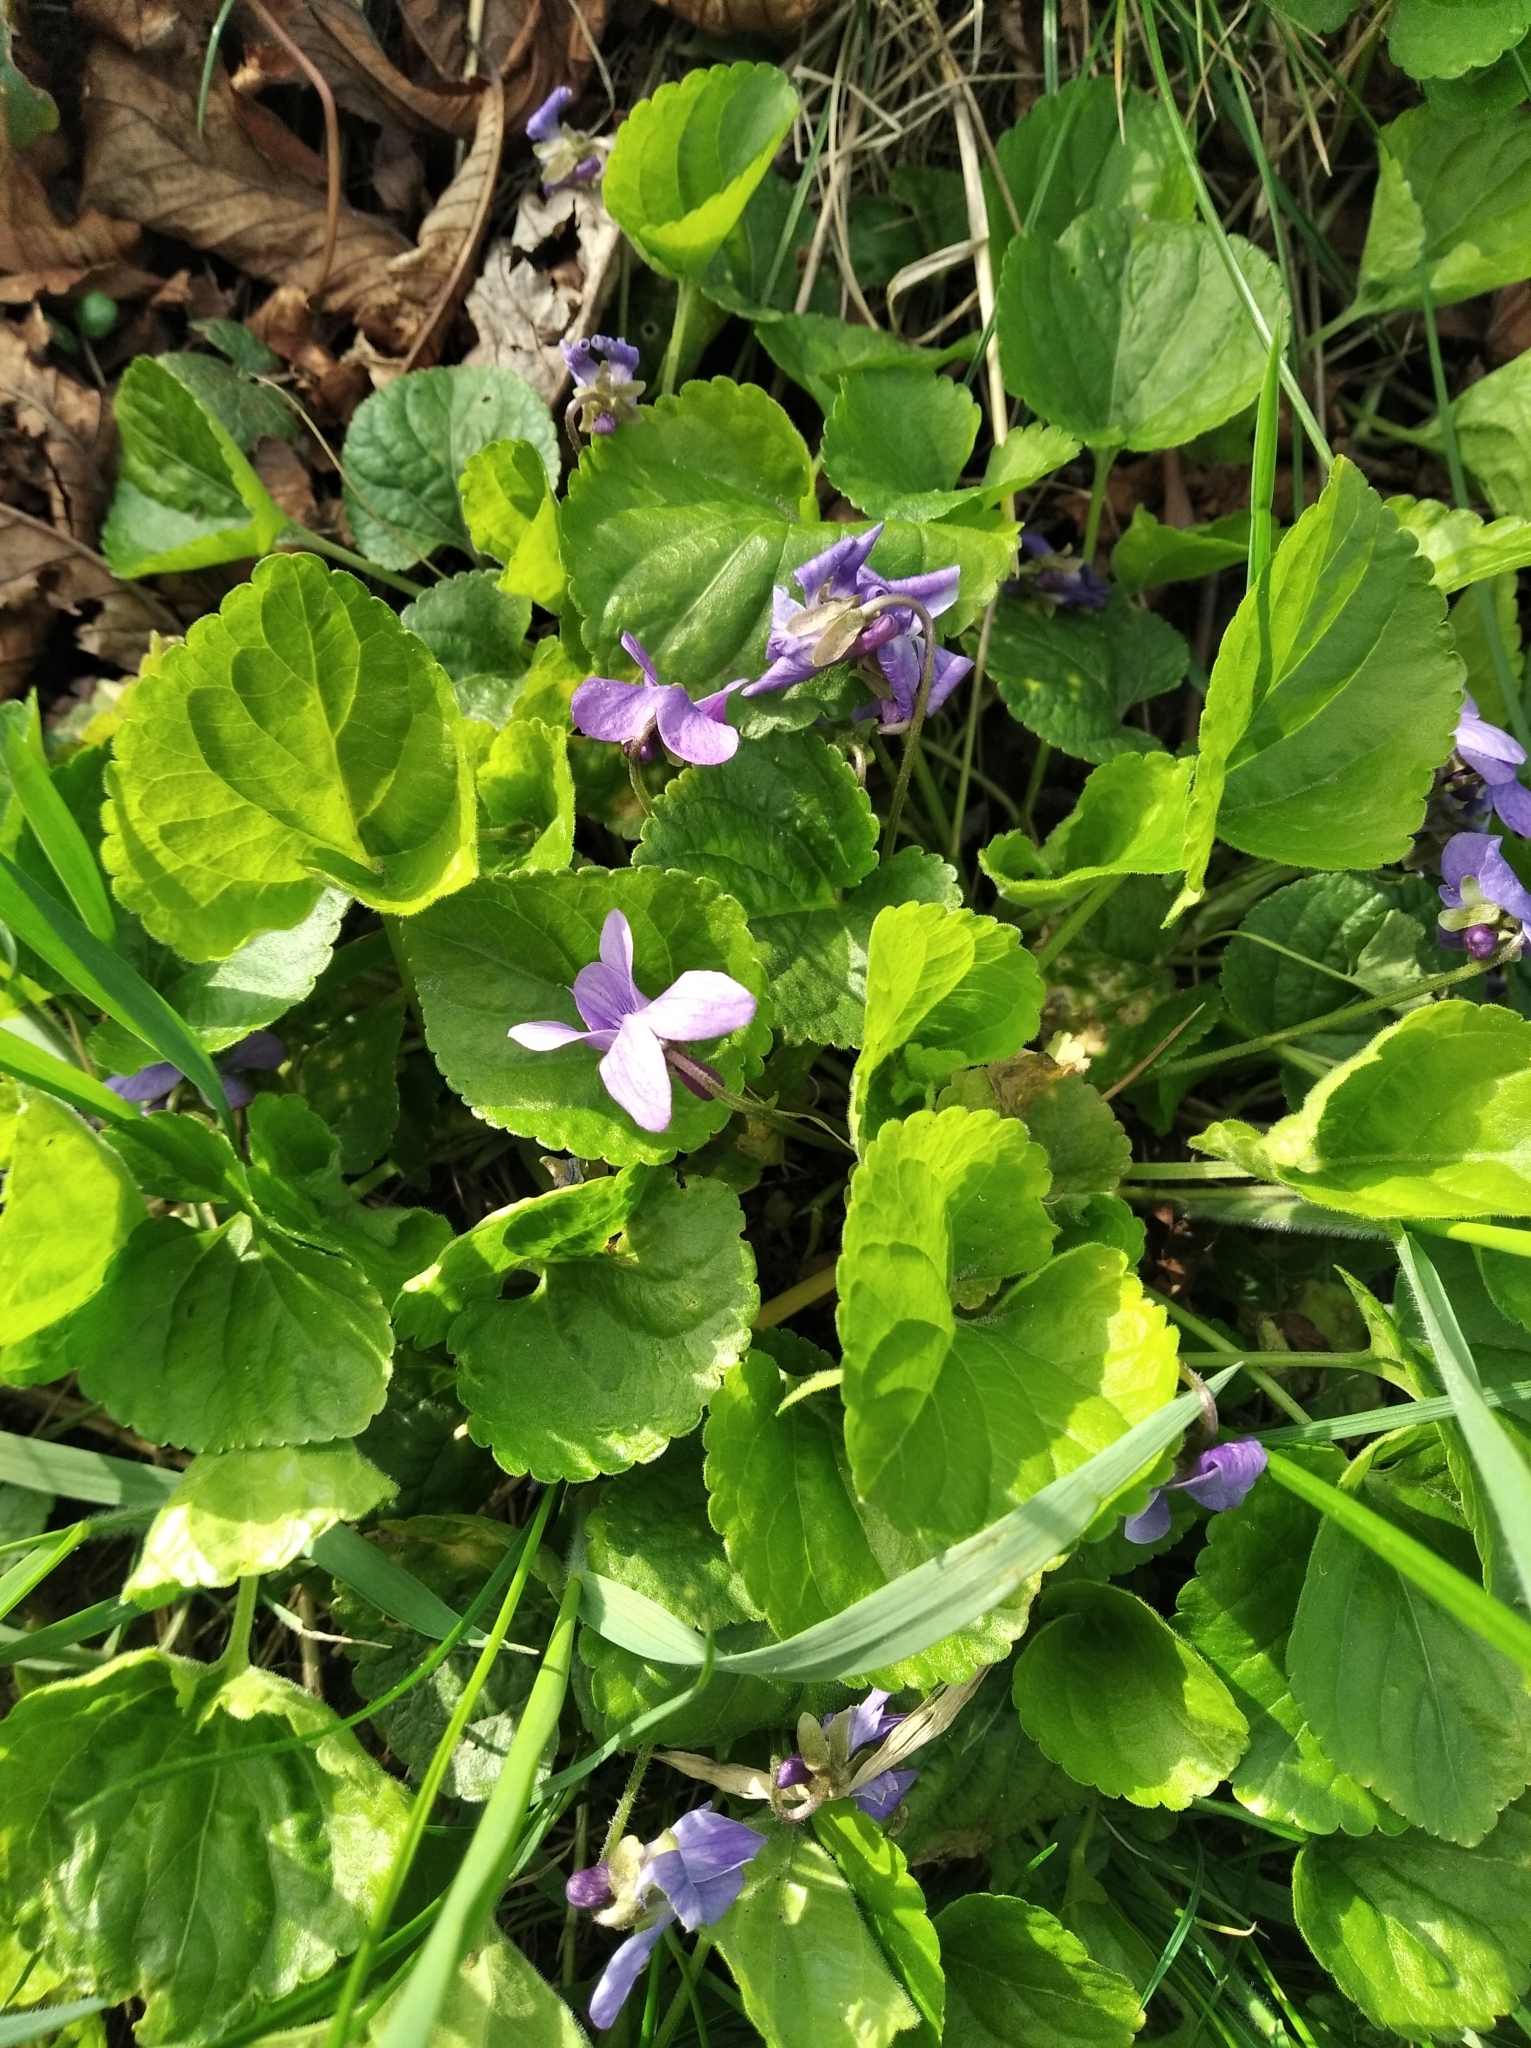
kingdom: Plantae
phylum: Tracheophyta
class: Magnoliopsida
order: Malpighiales
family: Violaceae
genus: Viola
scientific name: Viola odorata
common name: Sweet violet
